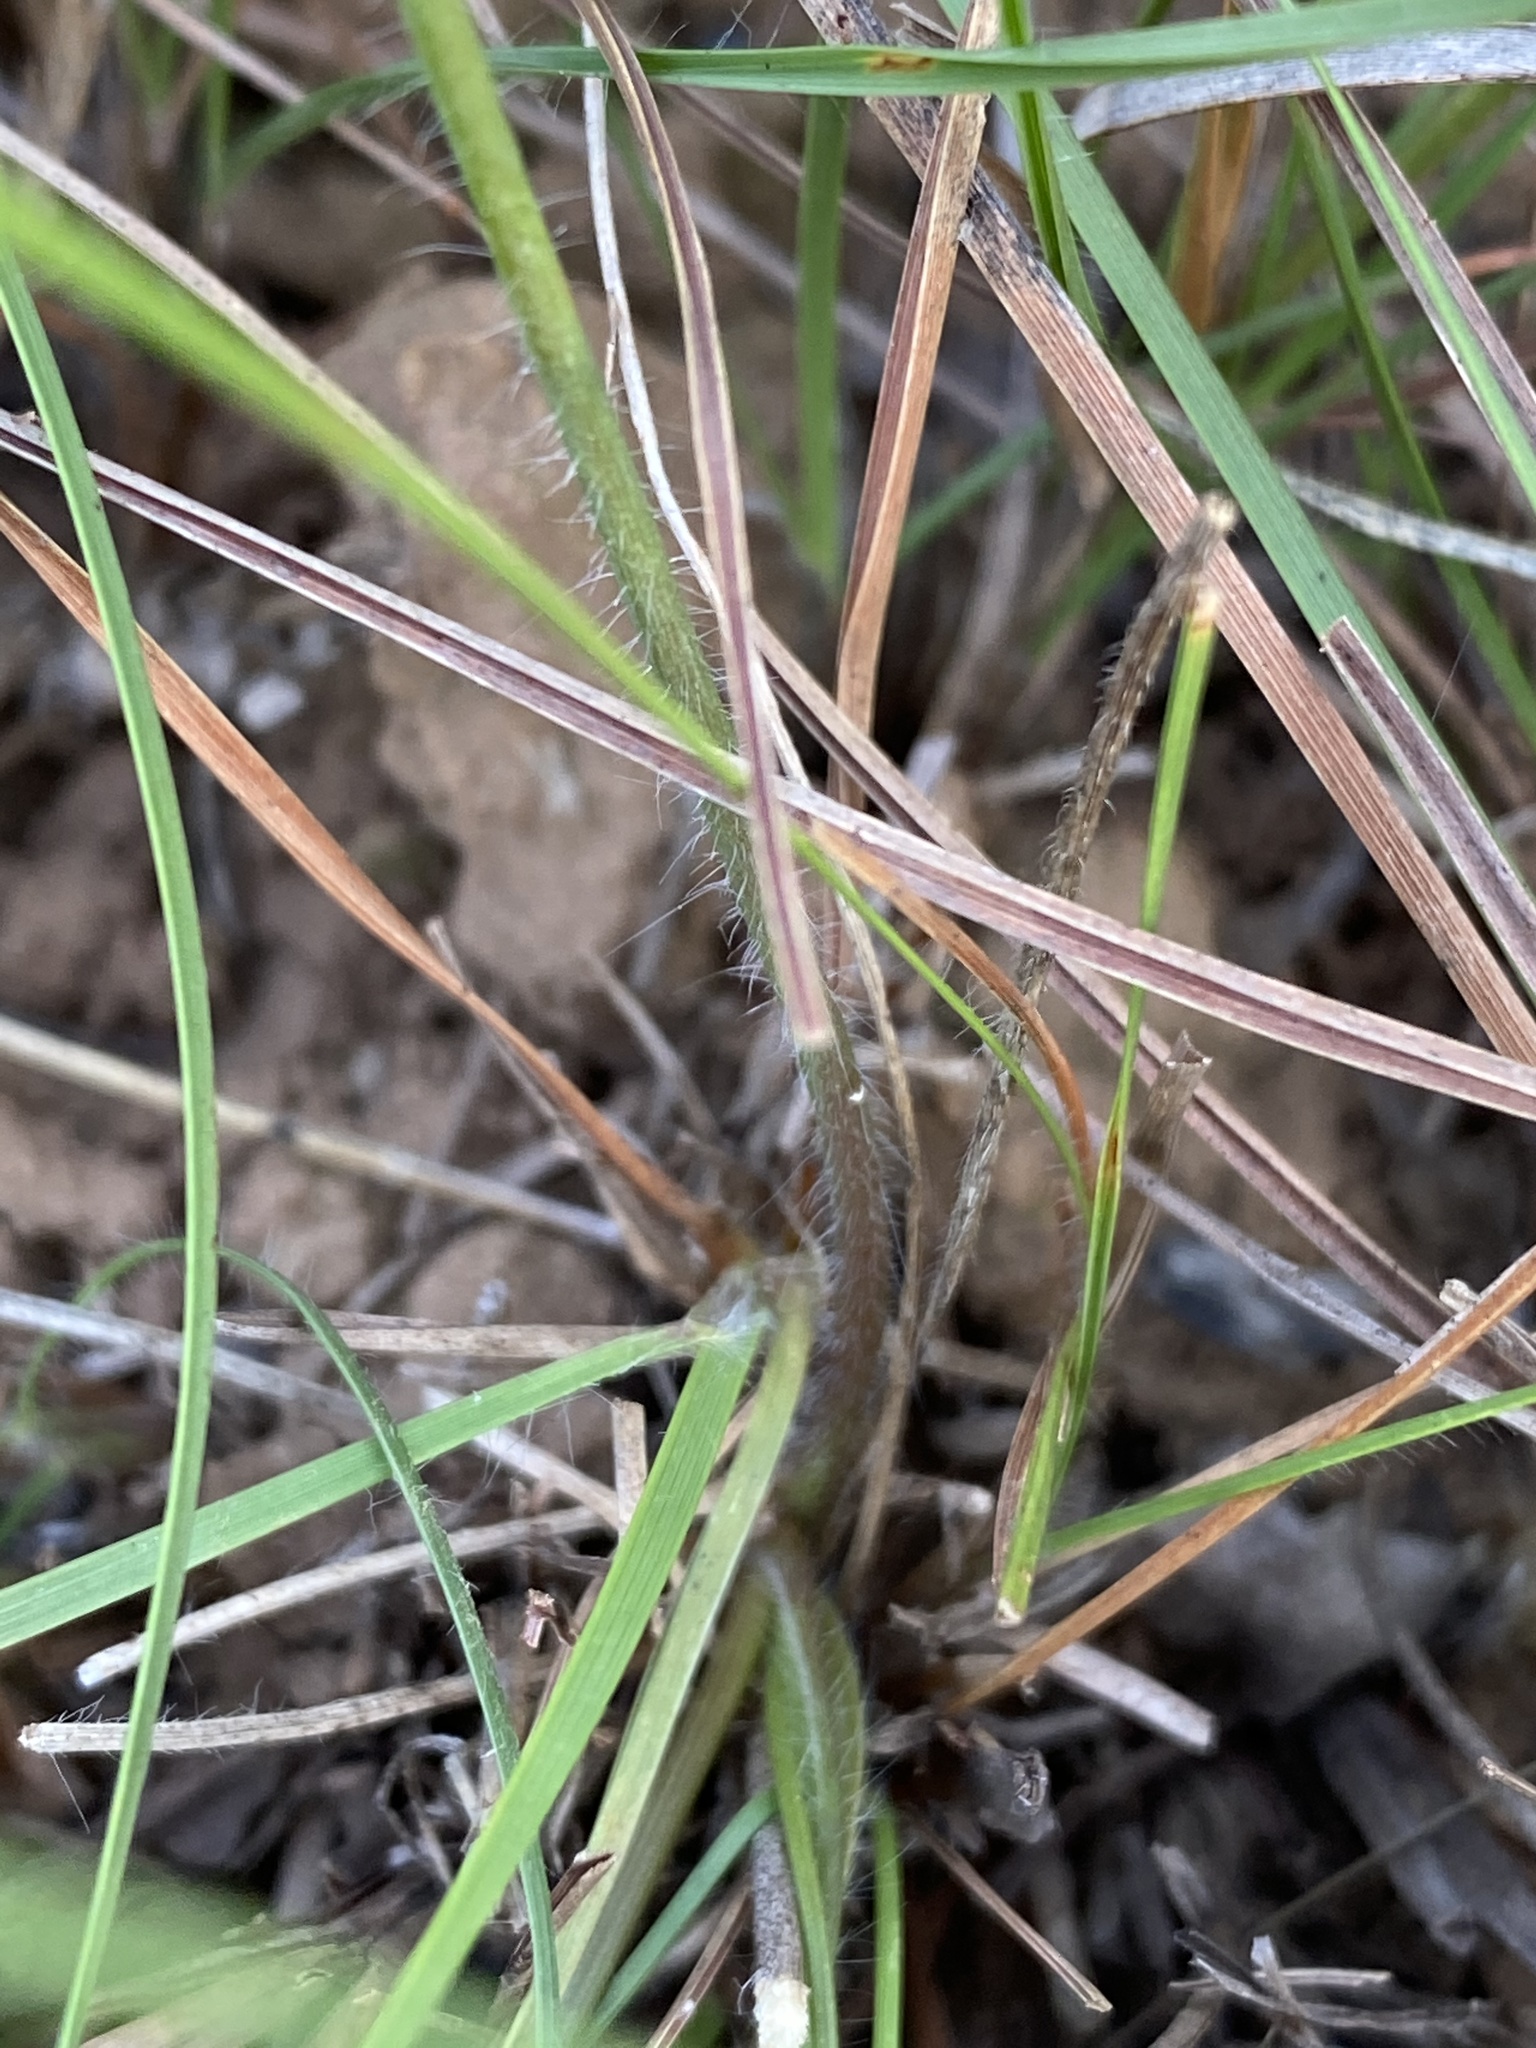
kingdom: Plantae
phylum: Tracheophyta
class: Liliopsida
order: Asparagales
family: Asphodelaceae
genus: Trachyandra
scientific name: Trachyandra asperata
